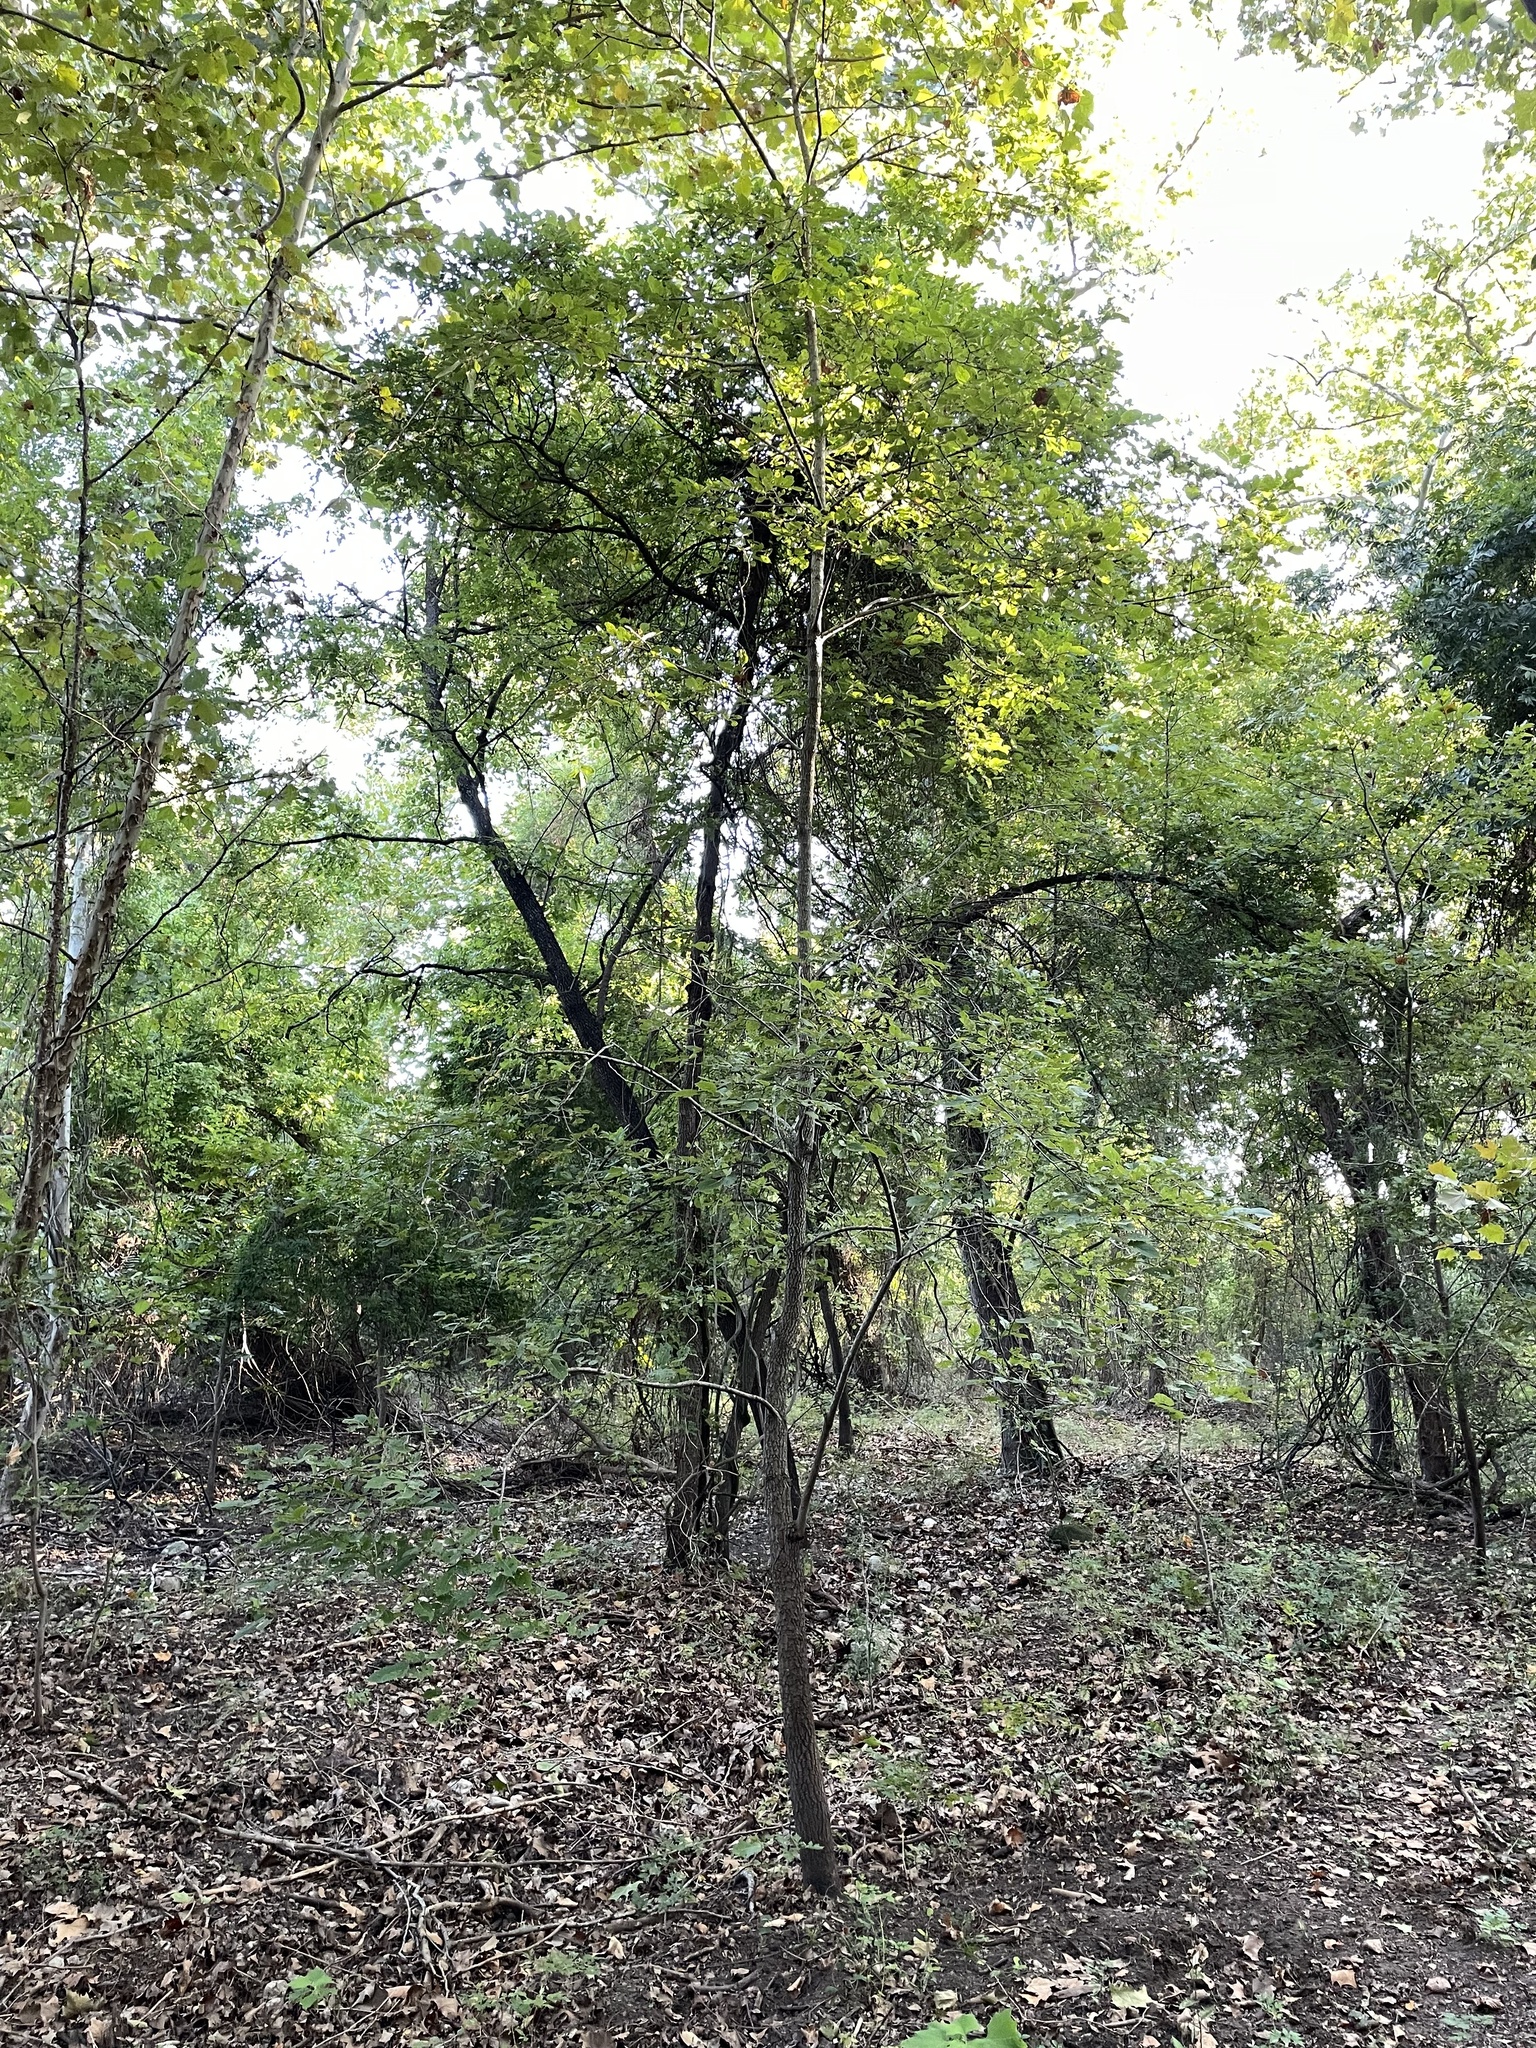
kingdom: Plantae
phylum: Tracheophyta
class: Magnoliopsida
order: Ericales
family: Ebenaceae
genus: Diospyros
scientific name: Diospyros virginiana
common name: Persimmon
